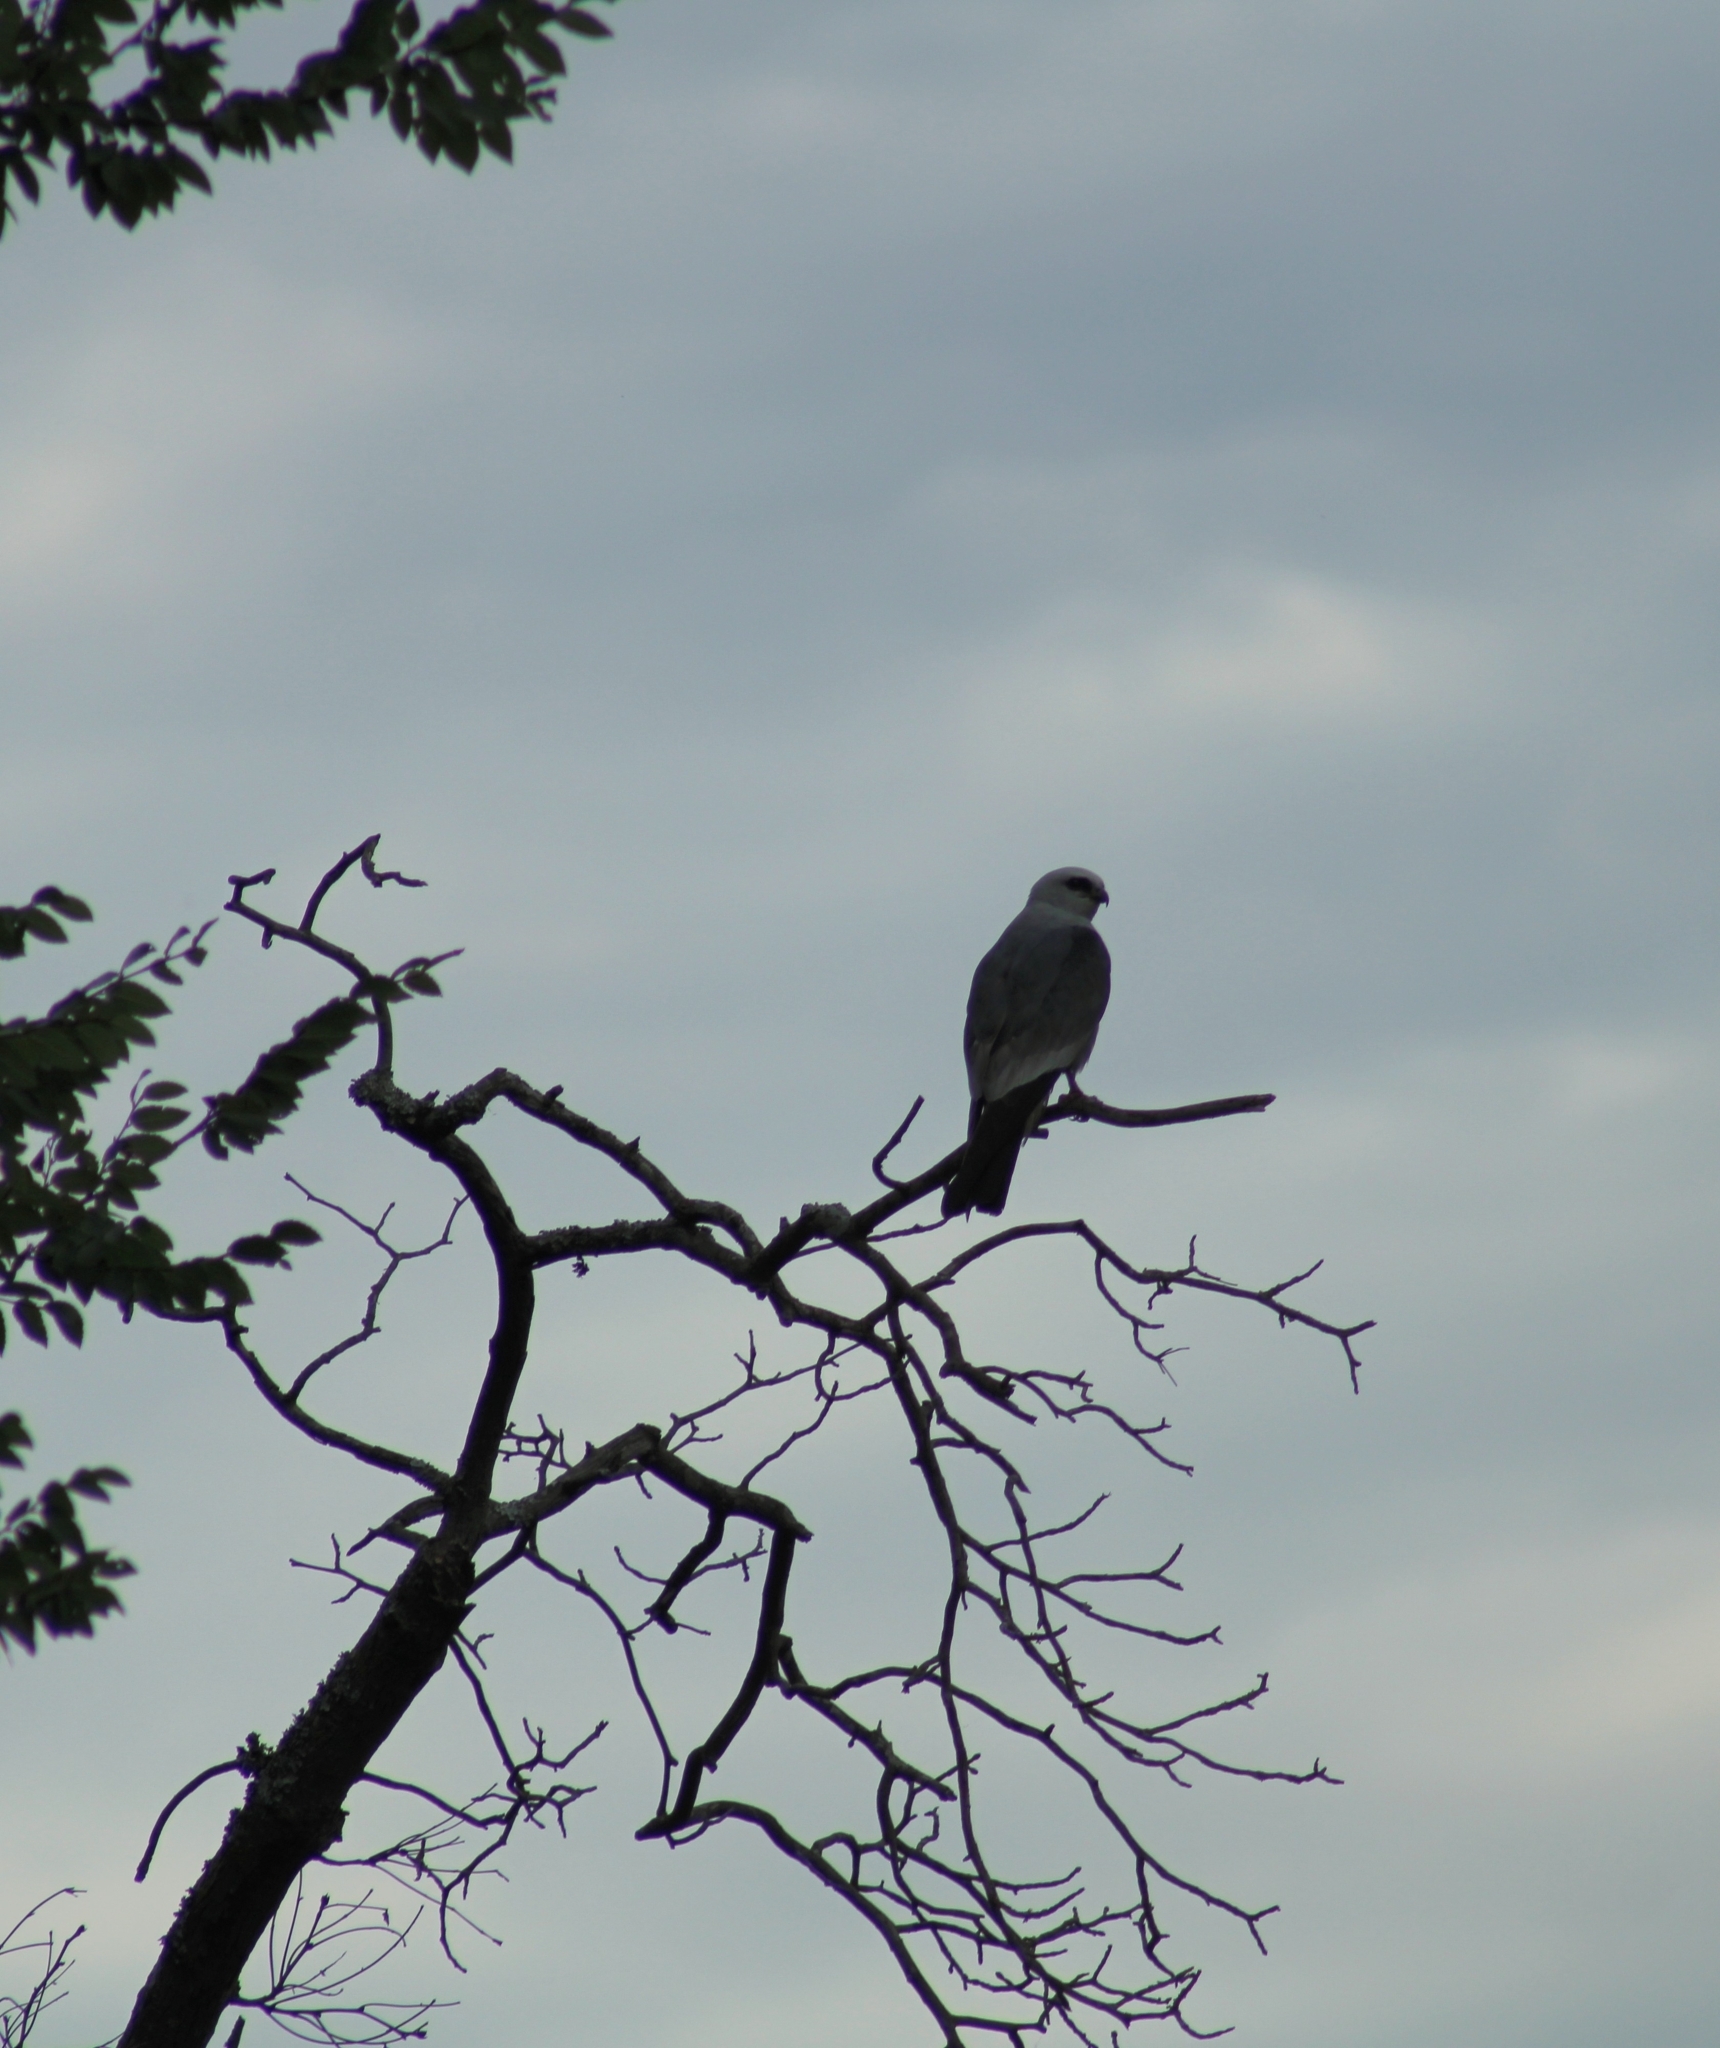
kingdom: Animalia
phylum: Chordata
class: Aves
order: Accipitriformes
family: Accipitridae
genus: Ictinia
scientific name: Ictinia mississippiensis
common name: Mississippi kite
